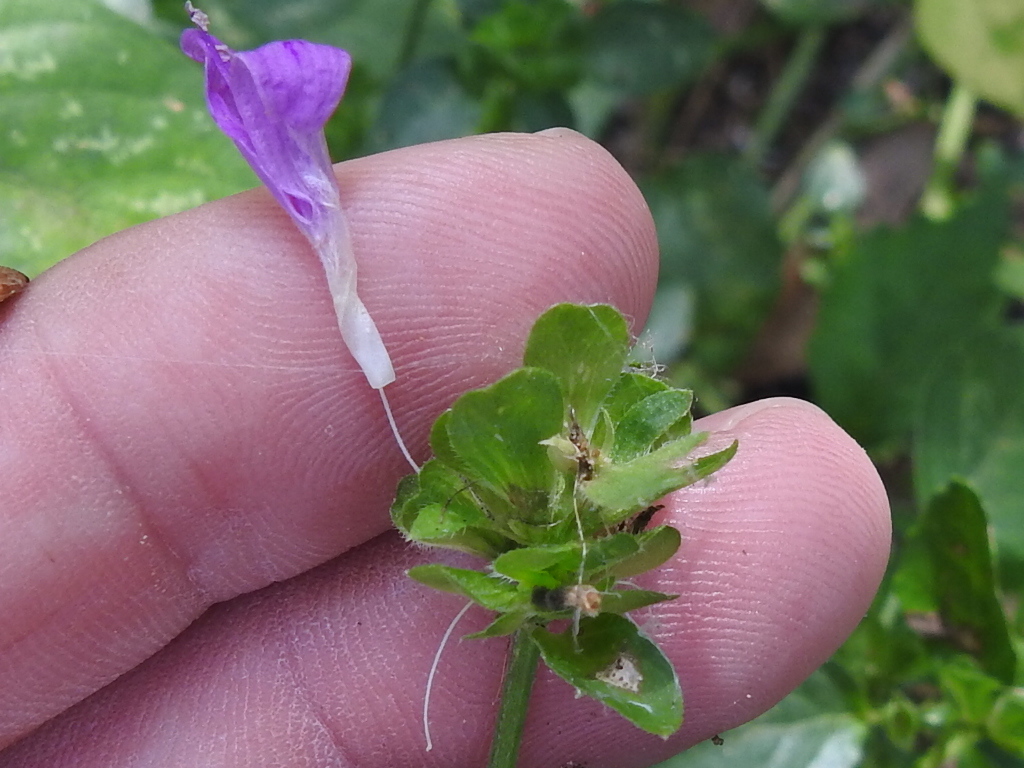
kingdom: Plantae
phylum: Tracheophyta
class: Magnoliopsida
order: Lamiales
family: Acanthaceae
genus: Dicliptera
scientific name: Dicliptera brachiata
